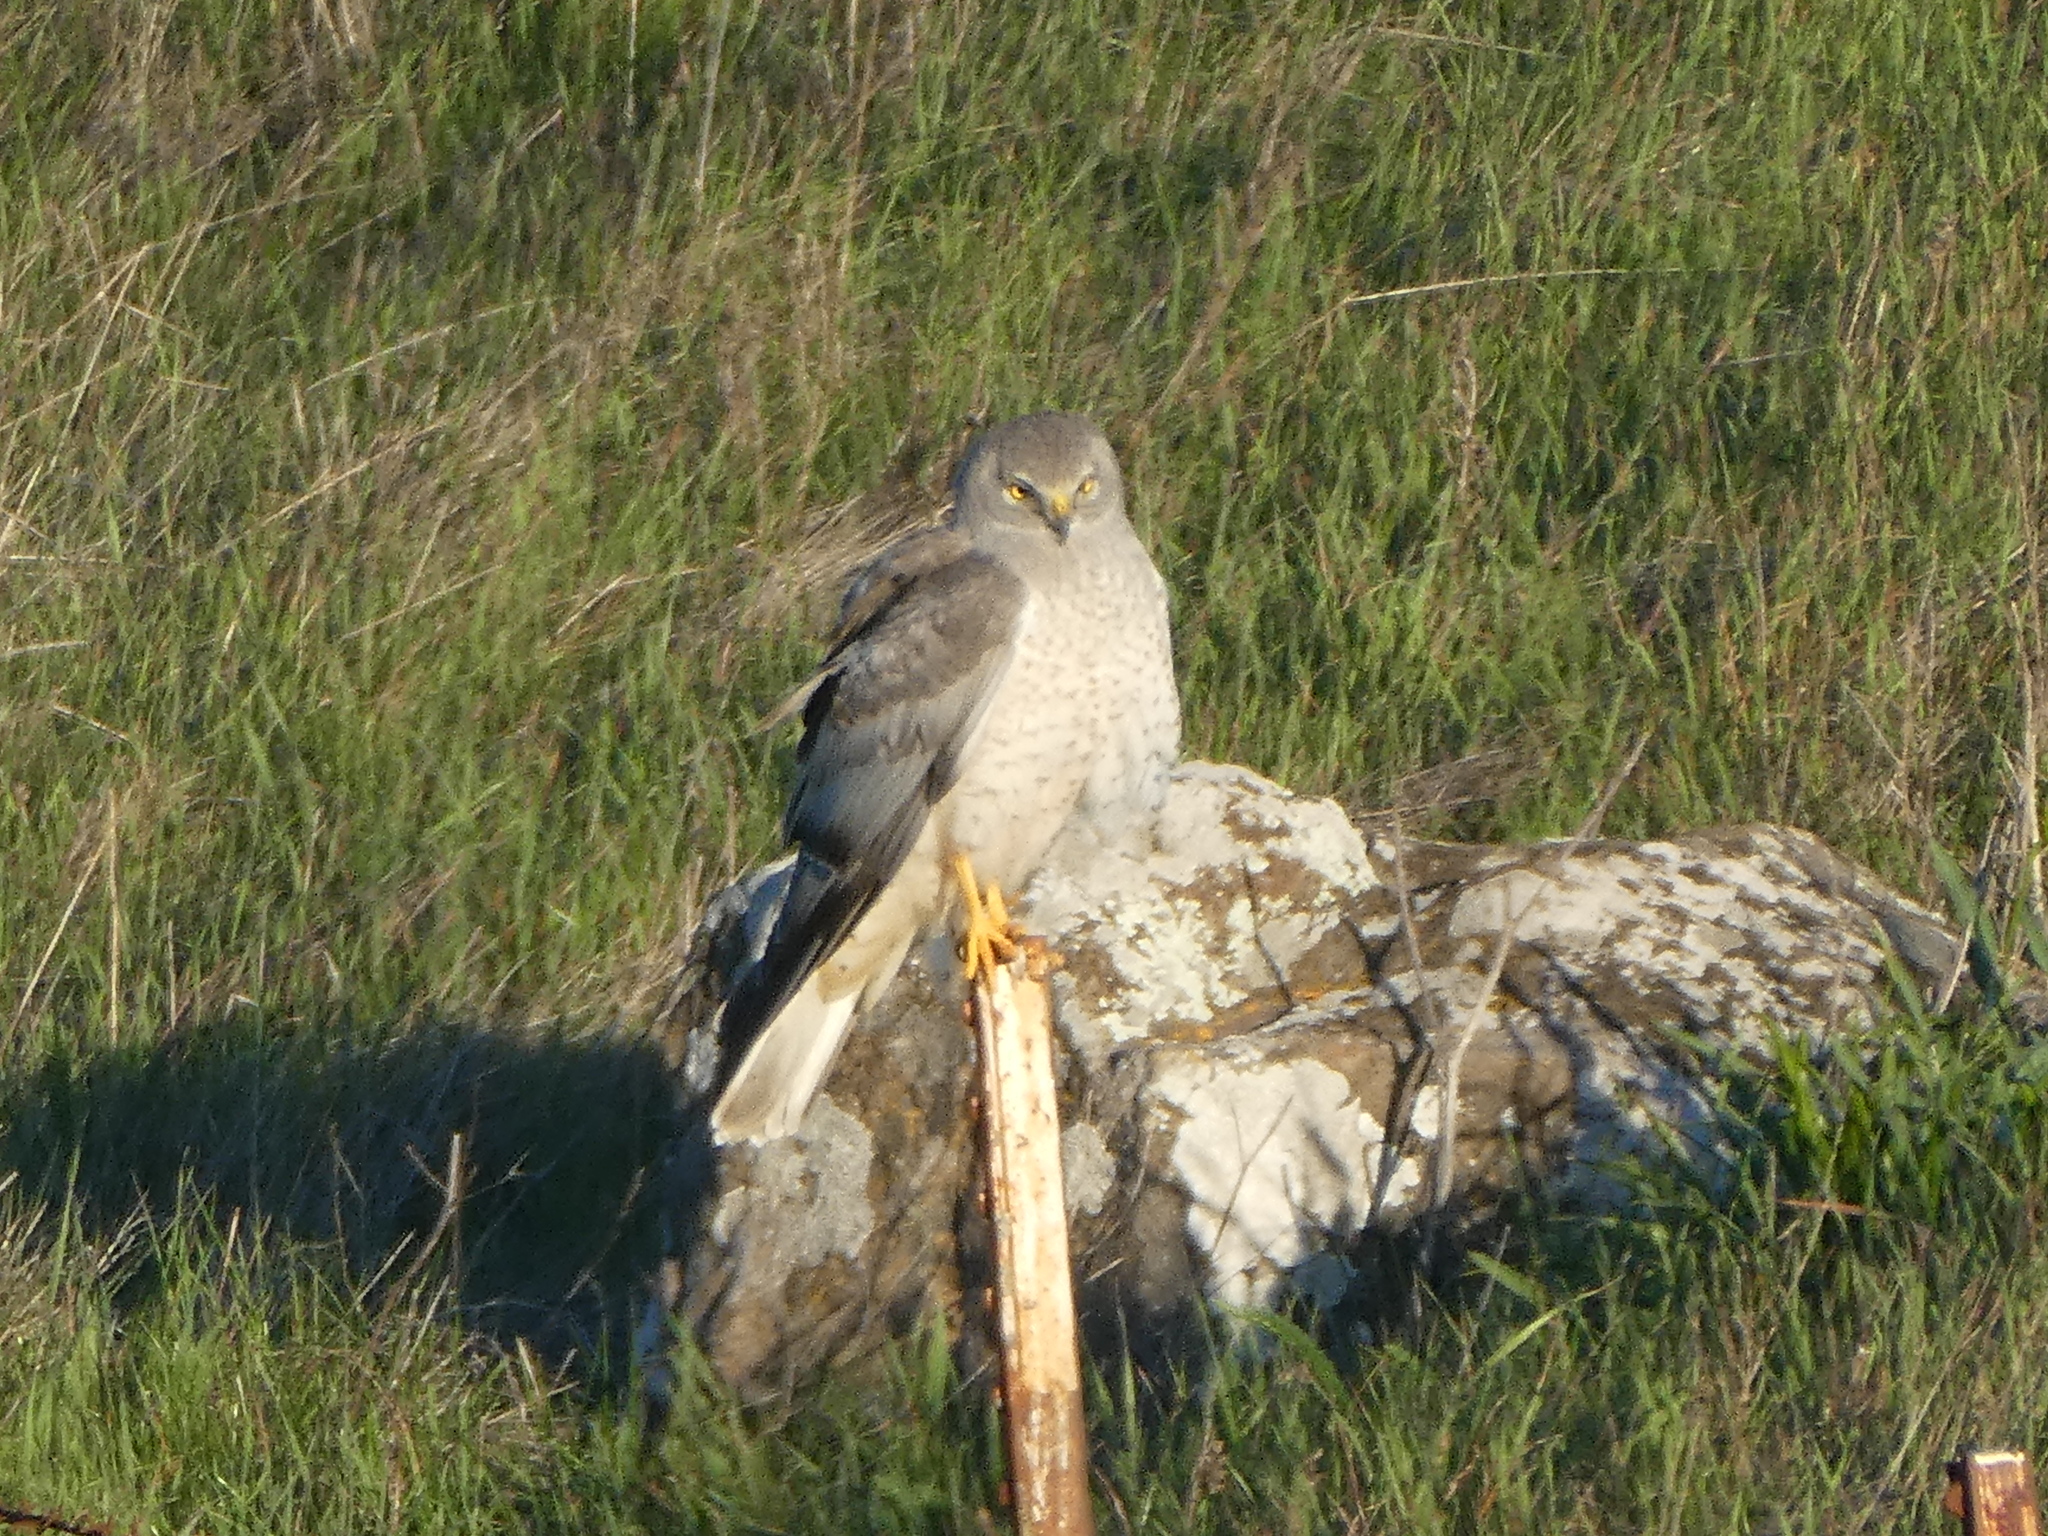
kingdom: Animalia
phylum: Chordata
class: Aves
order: Accipitriformes
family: Accipitridae
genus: Circus
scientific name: Circus cyaneus
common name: Hen harrier
